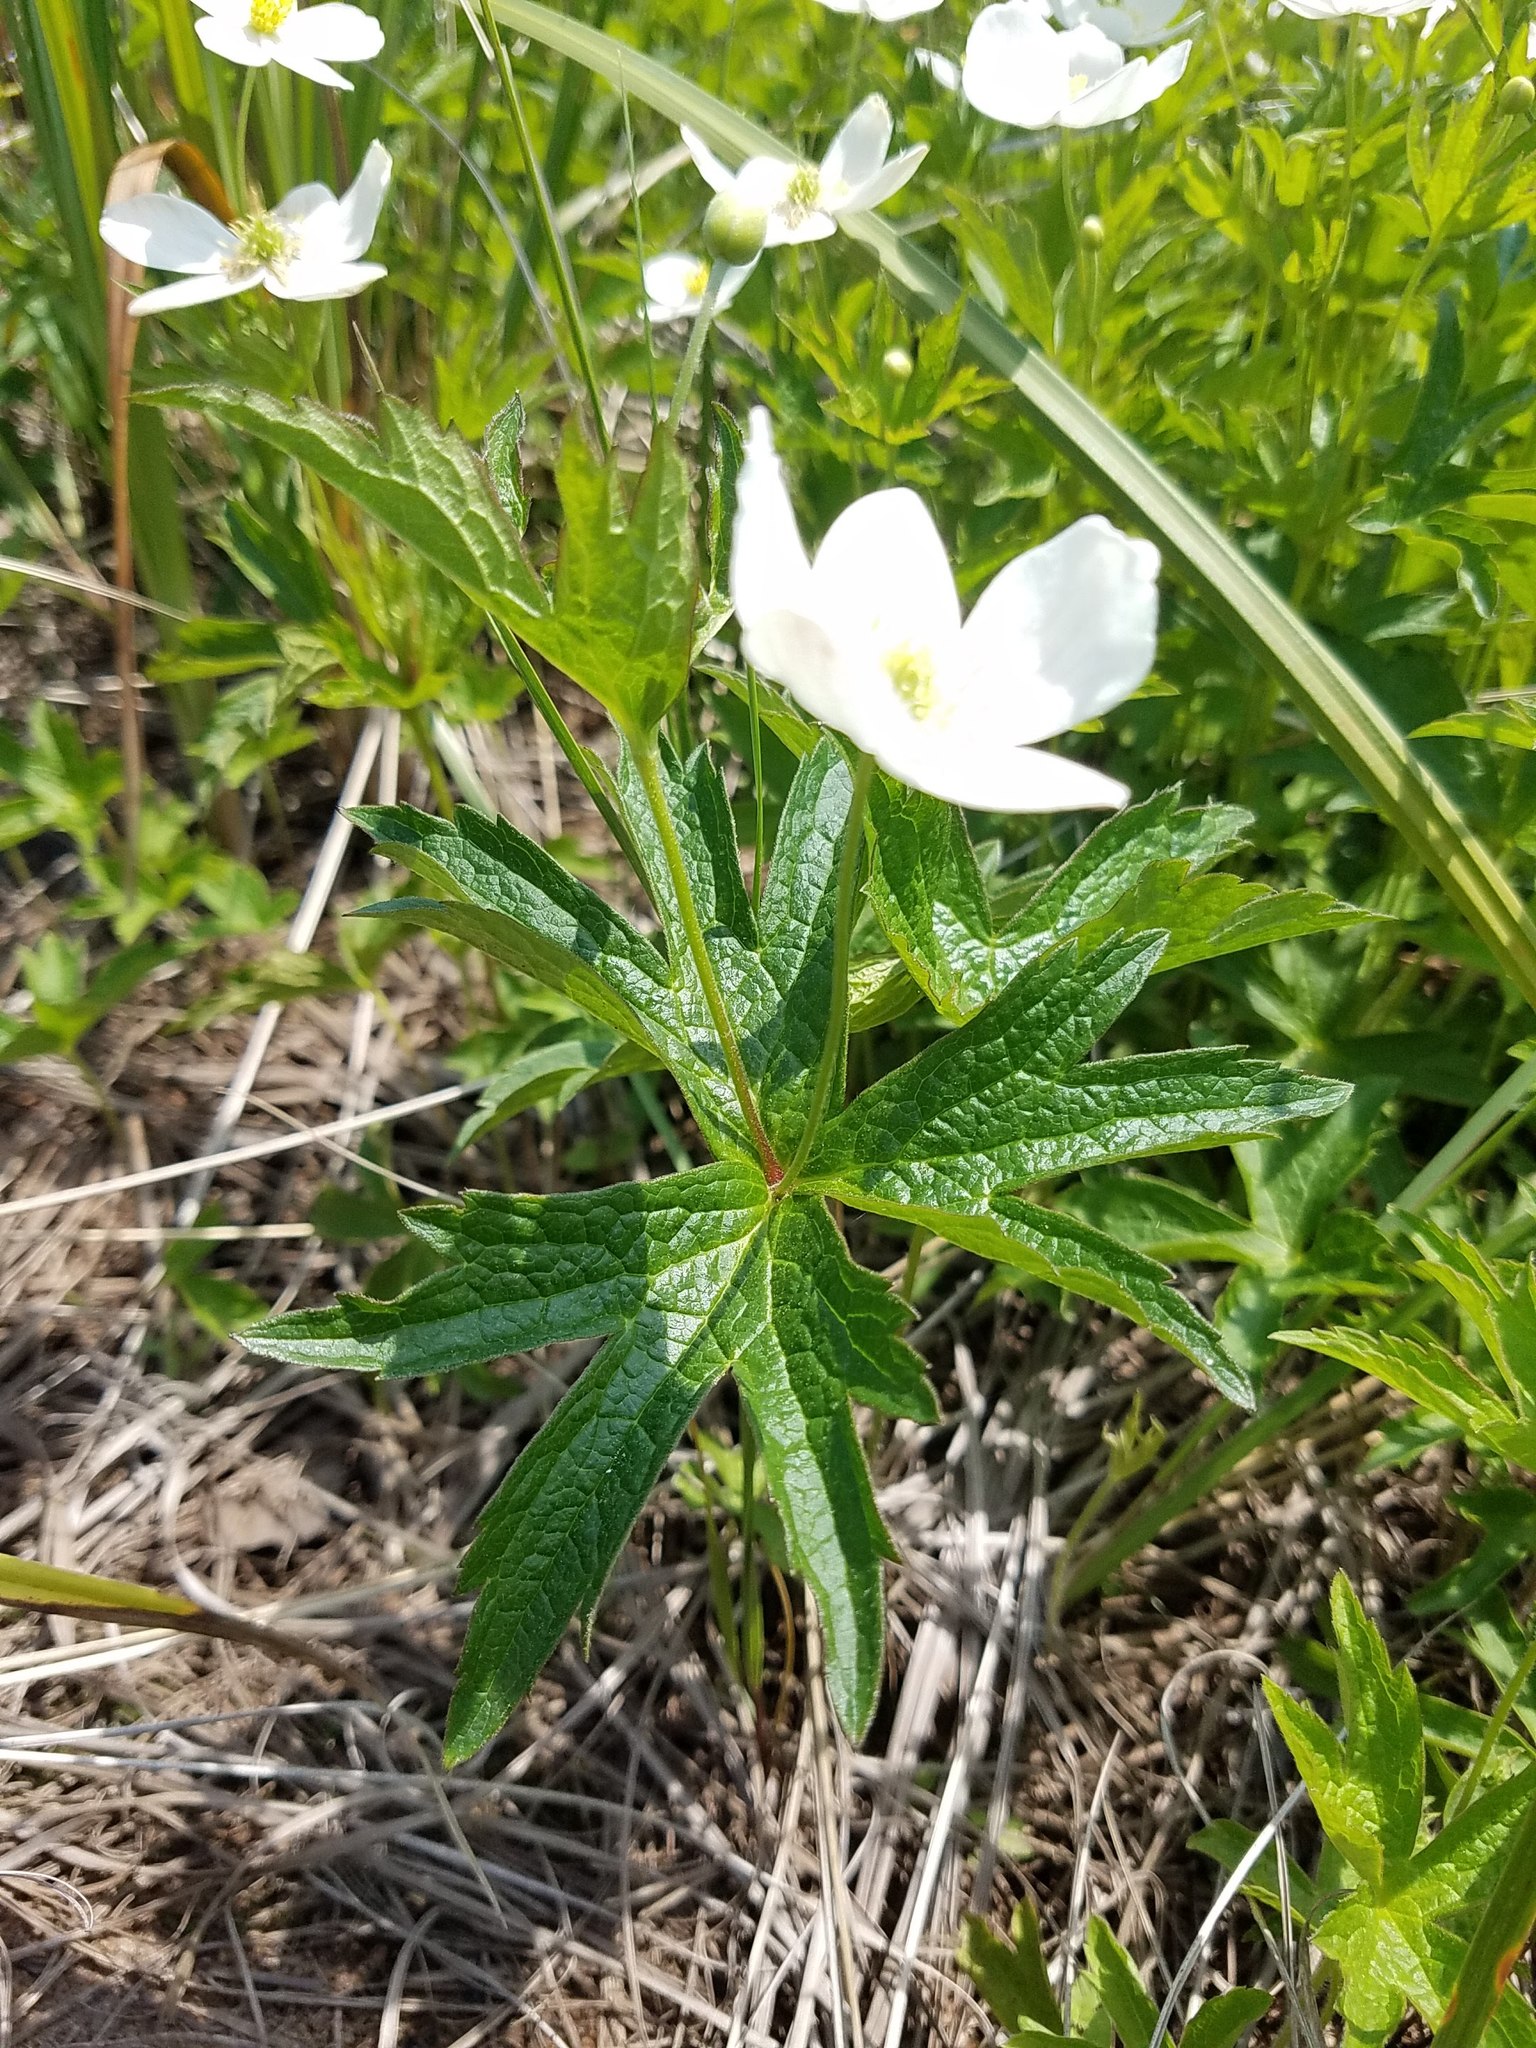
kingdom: Plantae
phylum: Tracheophyta
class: Magnoliopsida
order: Ranunculales
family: Ranunculaceae
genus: Anemonastrum
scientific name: Anemonastrum canadense
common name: Canada anemone
